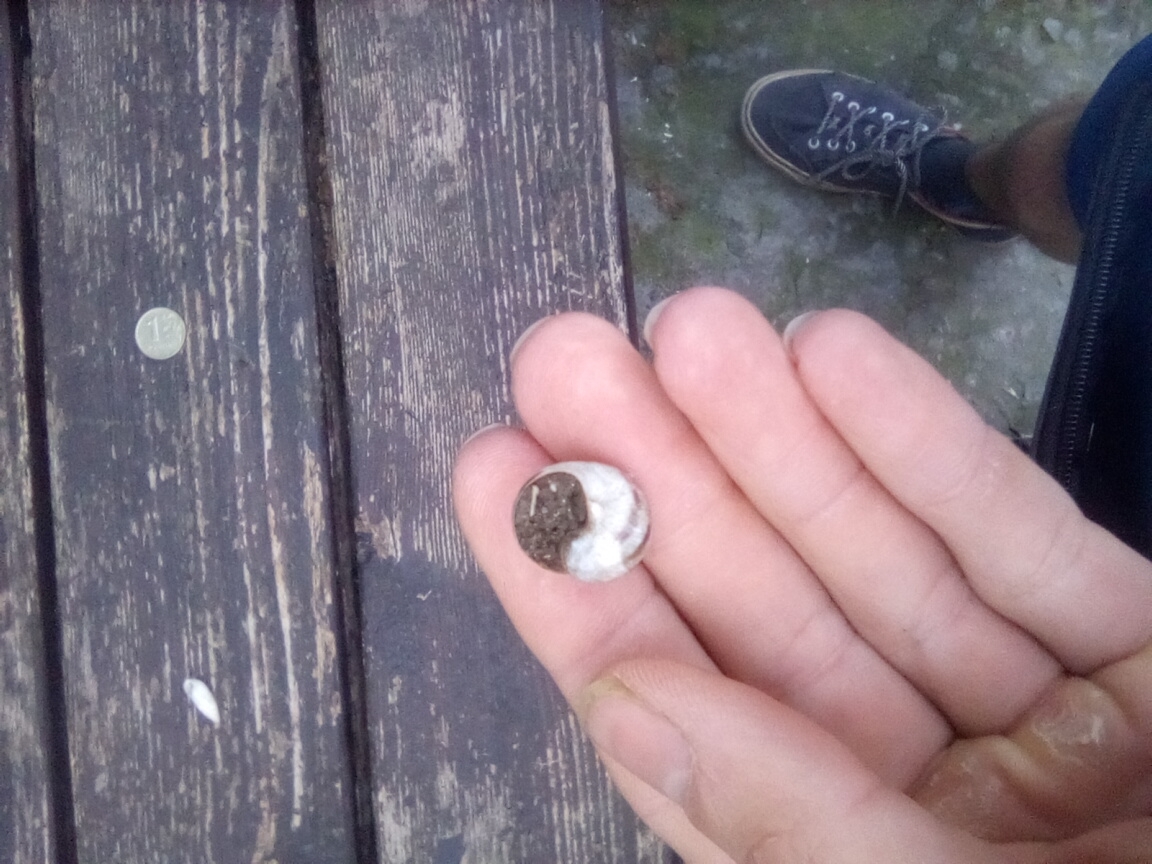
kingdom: Animalia
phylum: Mollusca
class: Gastropoda
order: Stylommatophora
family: Helicidae
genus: Helix
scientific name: Helix albescens
